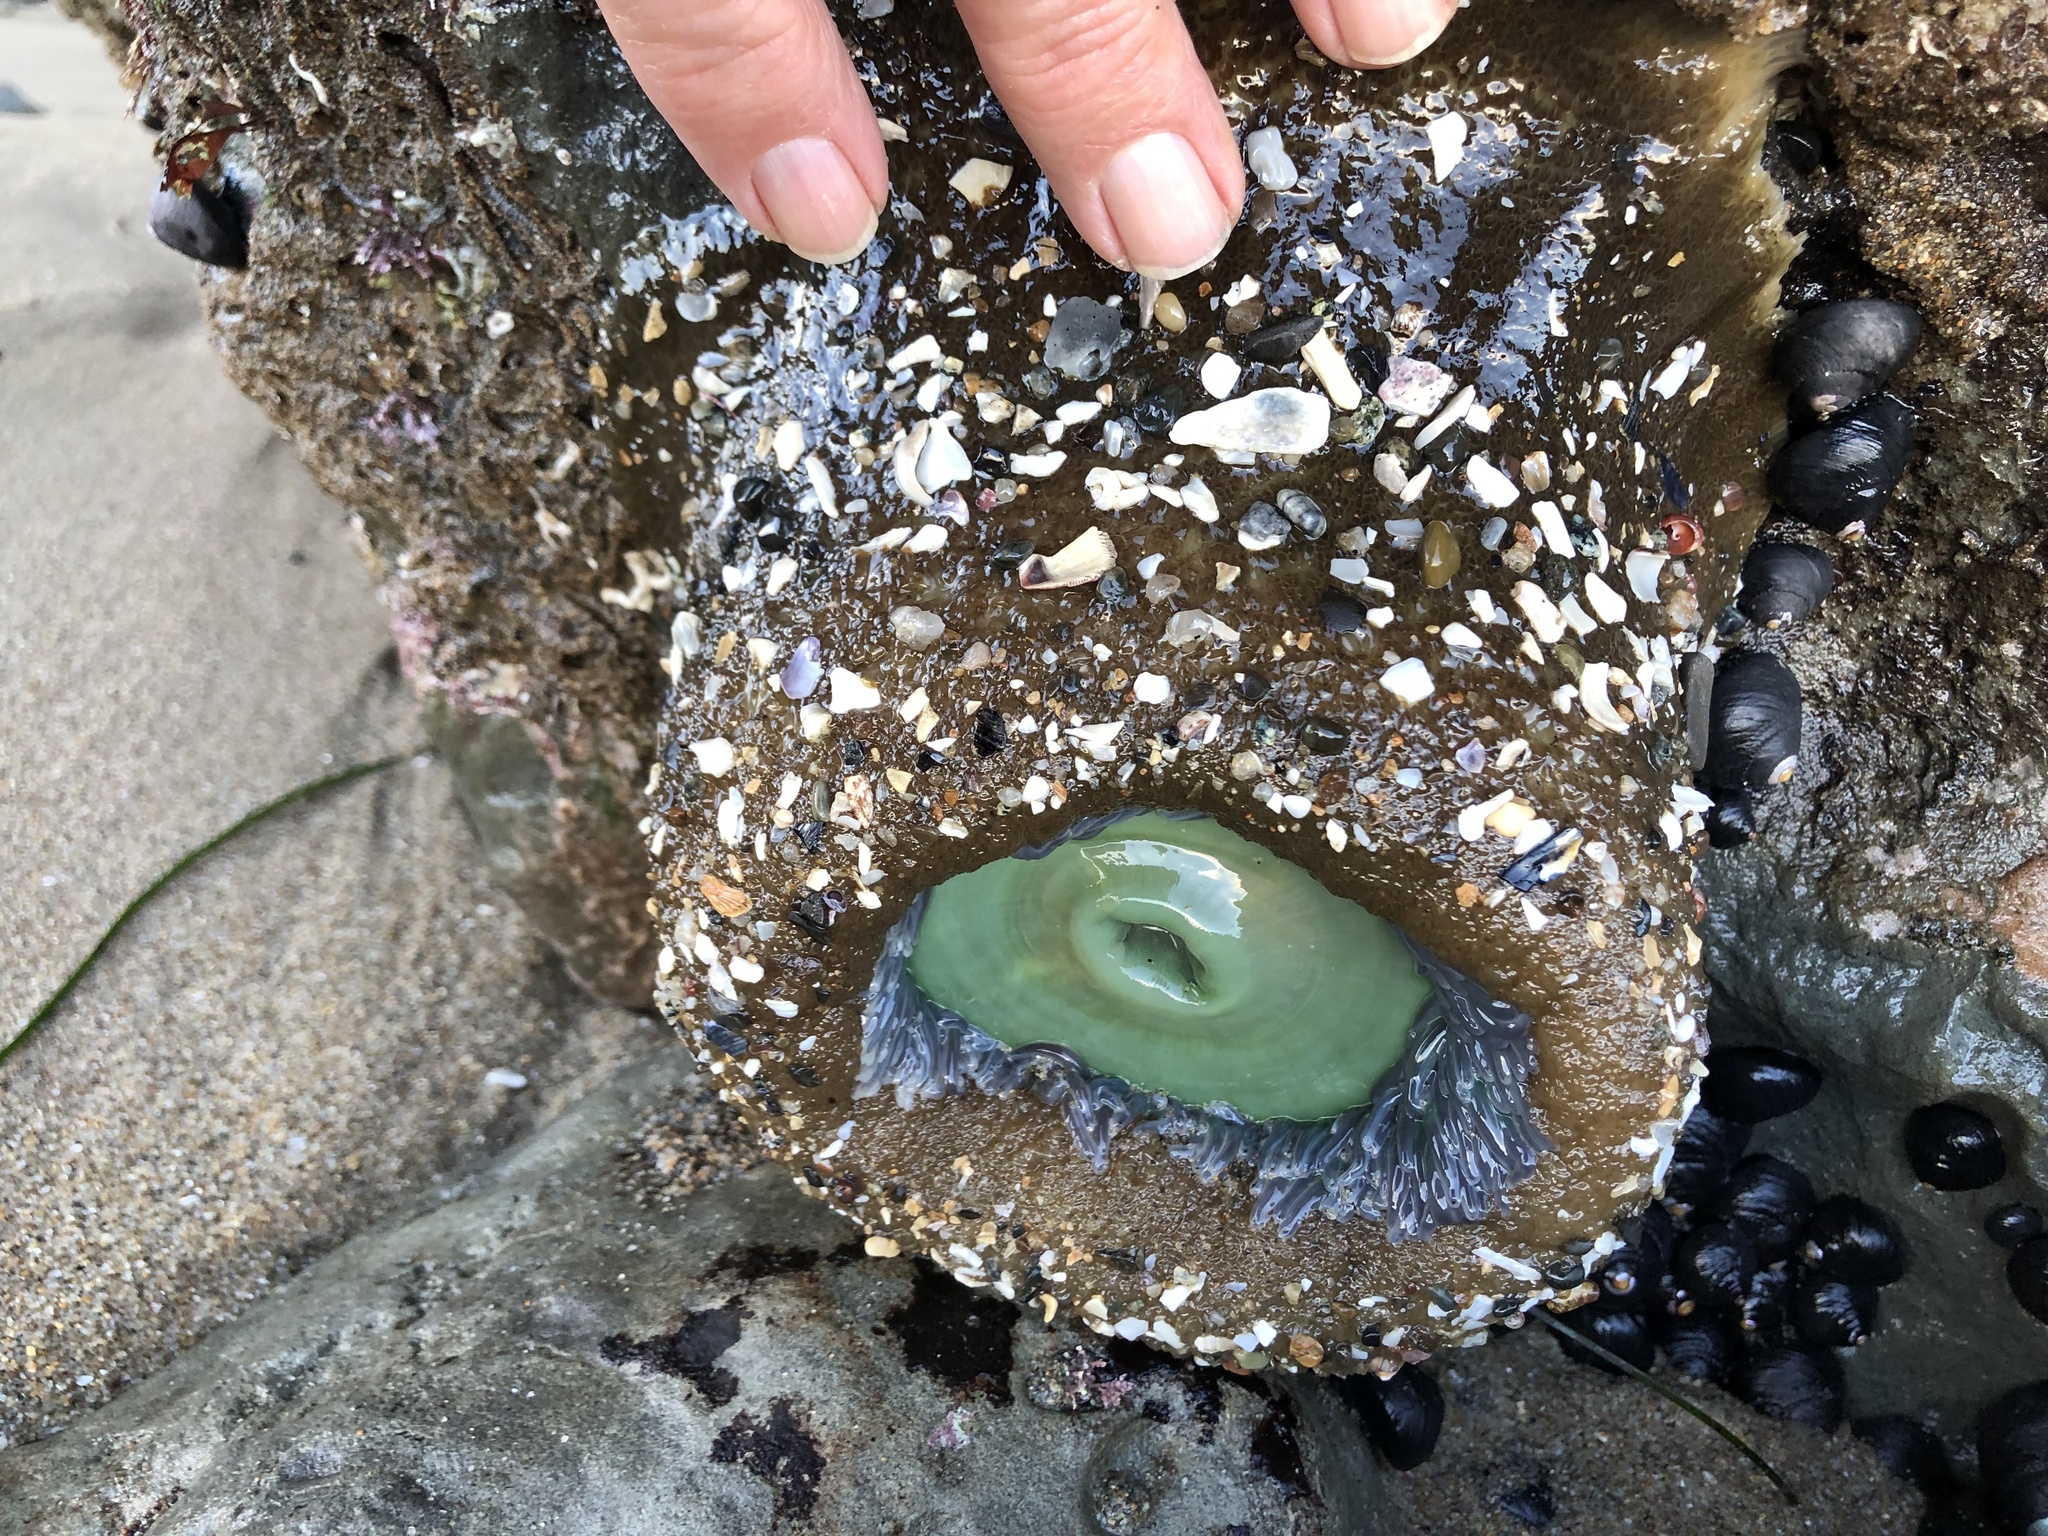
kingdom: Animalia
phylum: Cnidaria
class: Anthozoa
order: Actiniaria
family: Actiniidae
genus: Anthopleura
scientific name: Anthopleura xanthogrammica
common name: Giant green anemone
